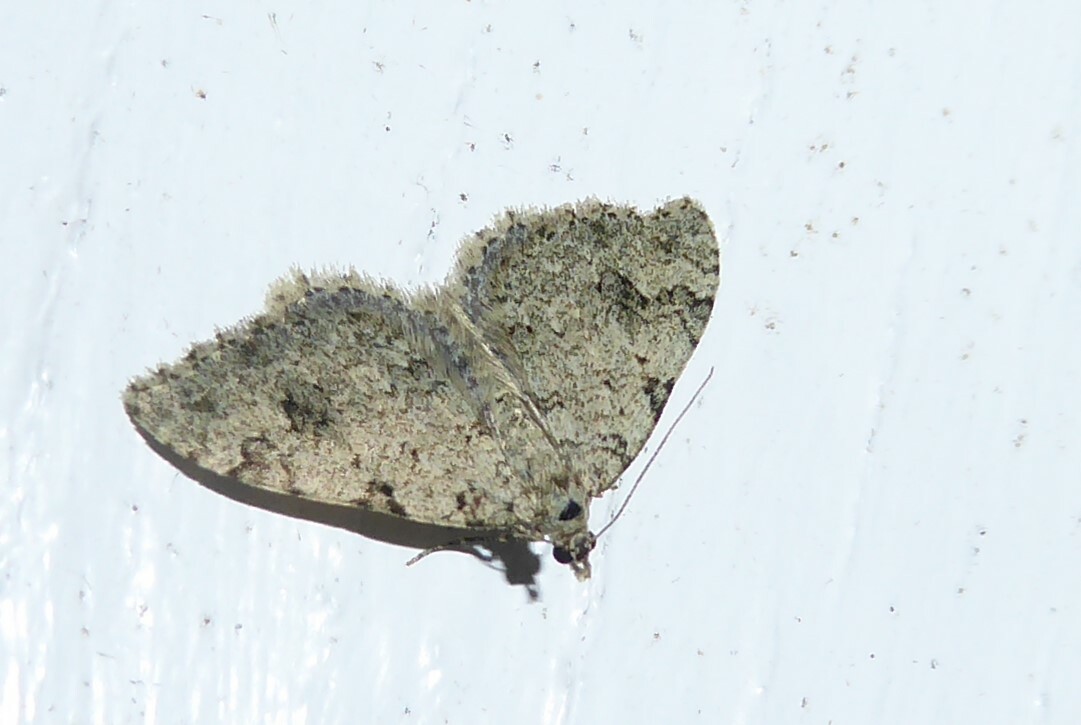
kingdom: Animalia
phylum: Arthropoda
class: Insecta
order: Lepidoptera
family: Geometridae
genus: Helastia
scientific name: Helastia cinerearia
